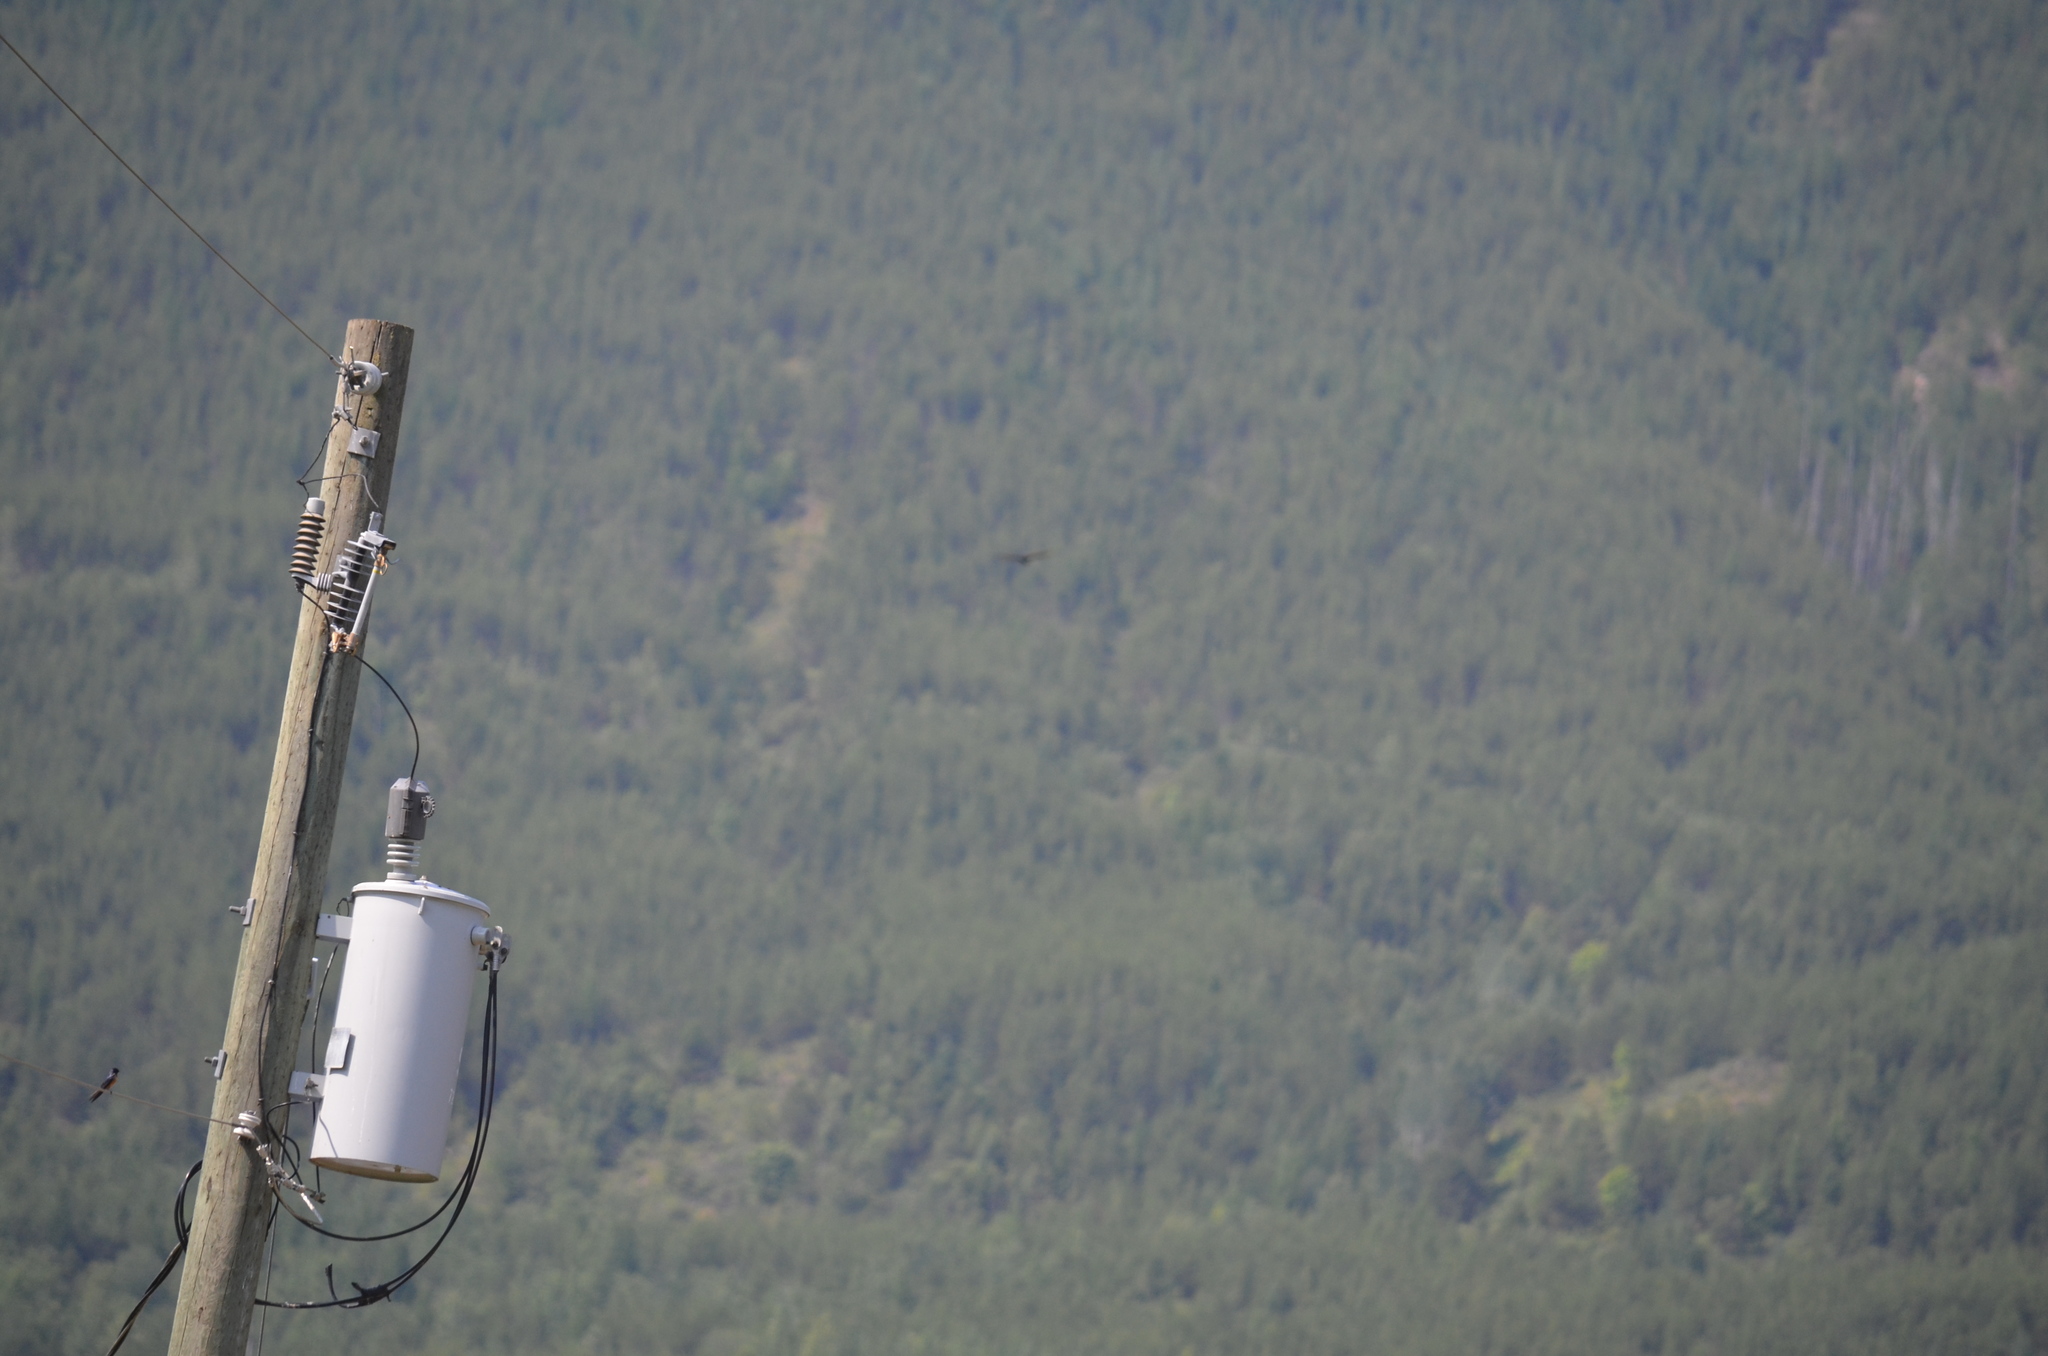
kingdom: Animalia
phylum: Chordata
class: Aves
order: Passeriformes
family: Hirundinidae
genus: Hirundo
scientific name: Hirundo rustica
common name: Barn swallow
